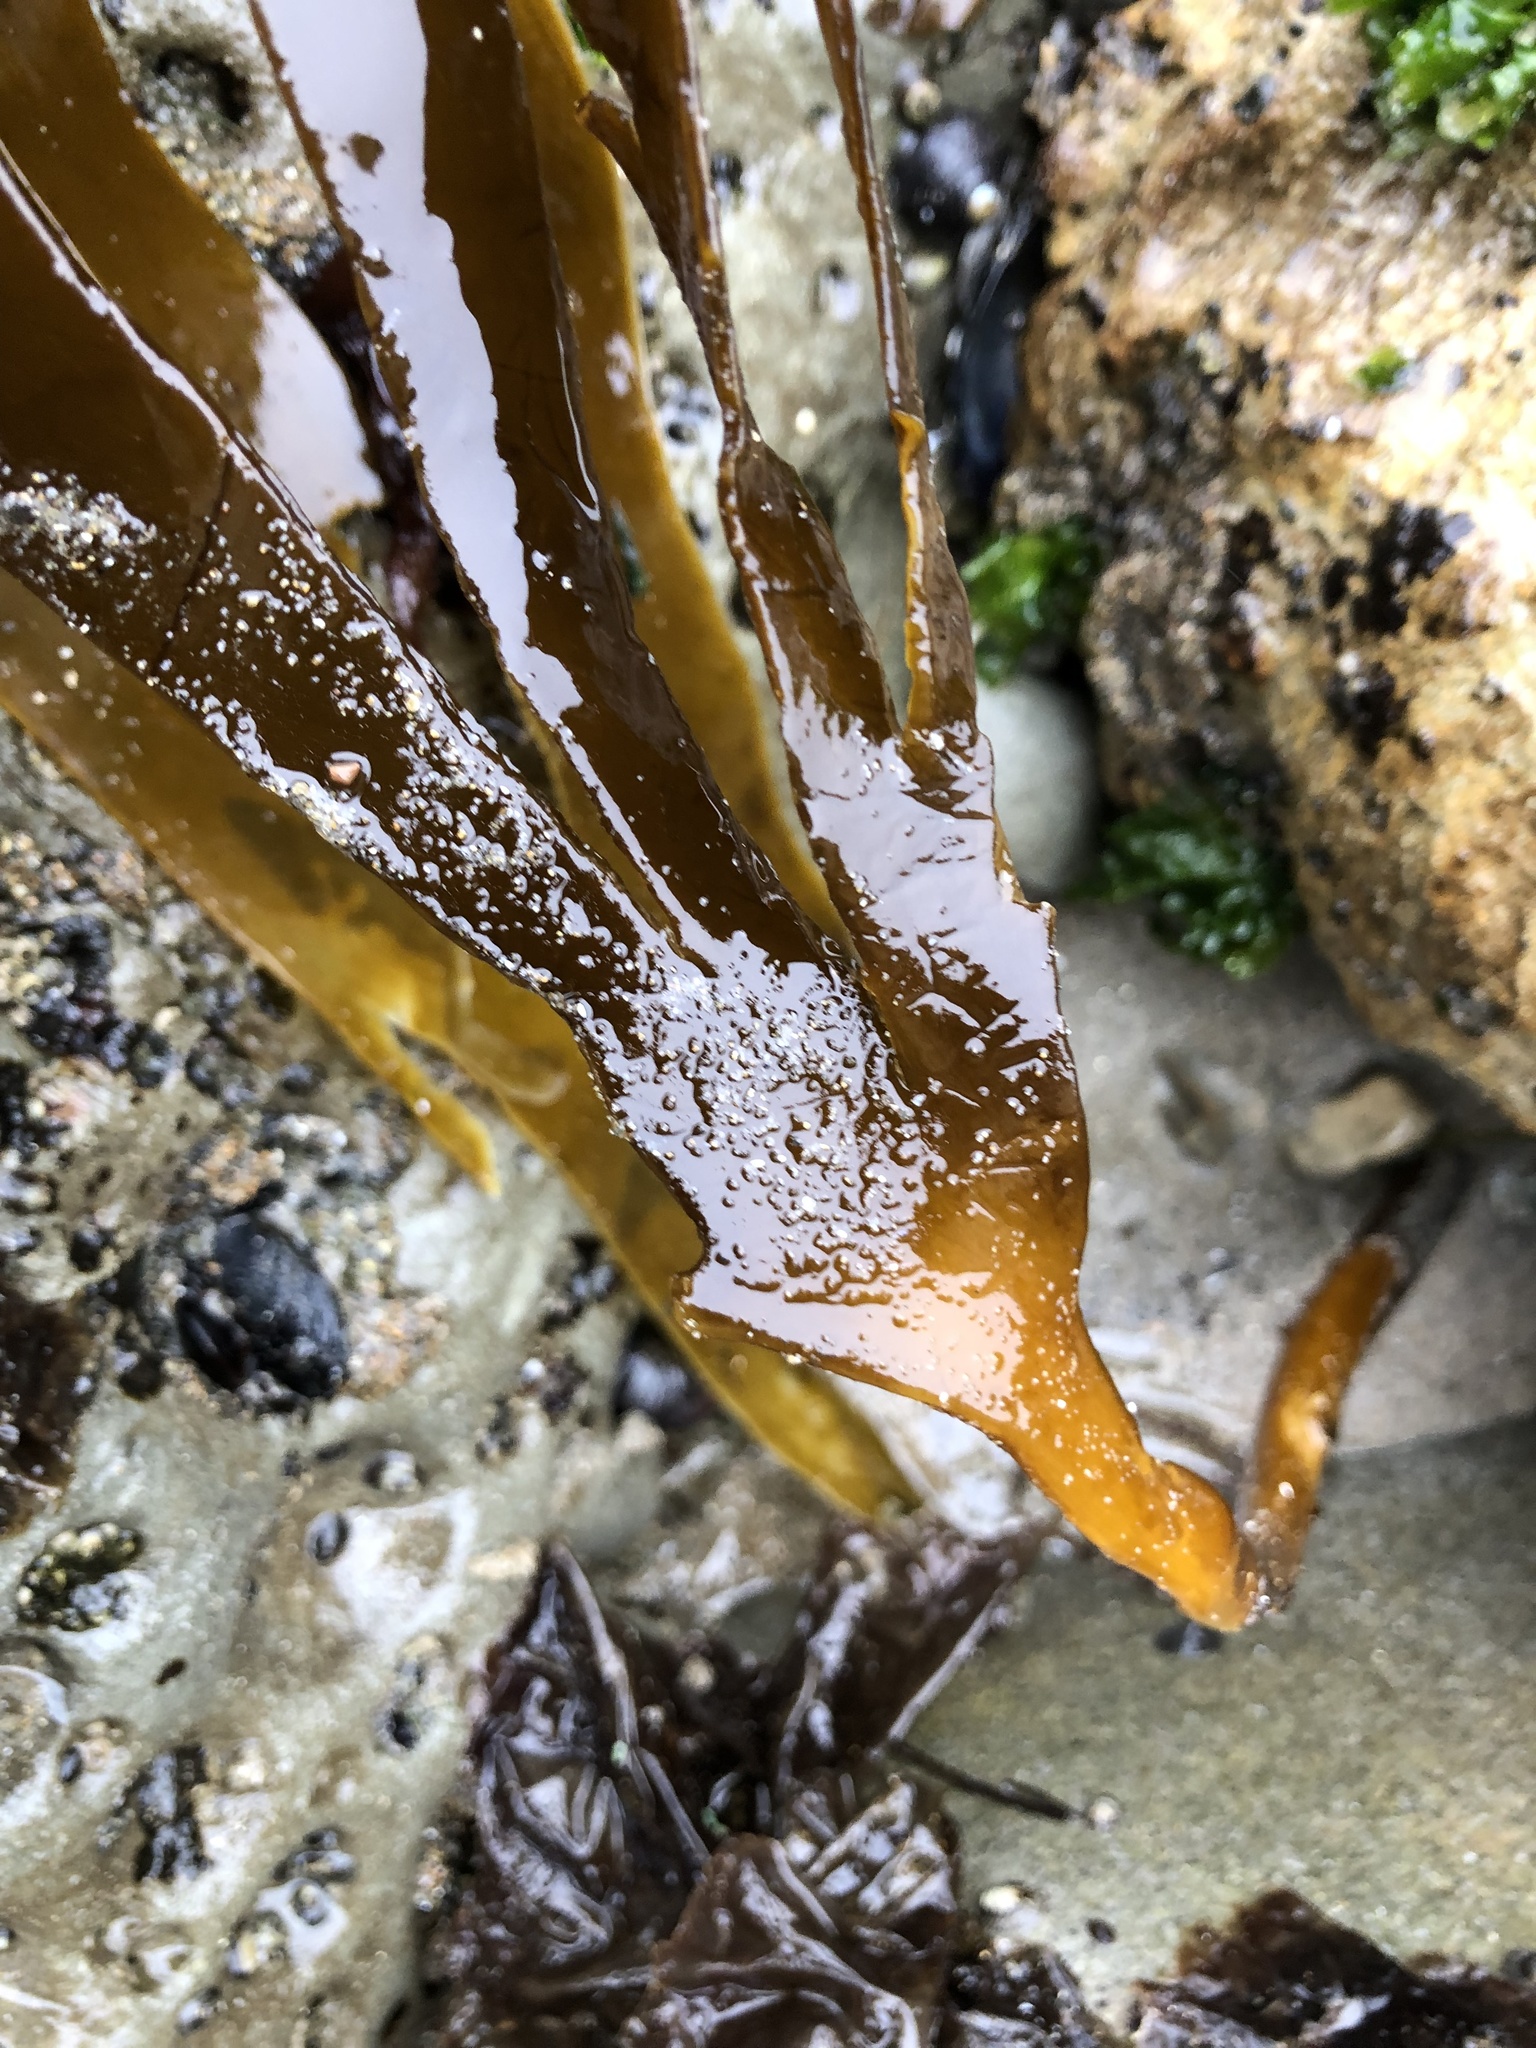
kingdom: Chromista
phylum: Ochrophyta
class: Phaeophyceae
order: Laminariales
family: Laminariaceae
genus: Laminaria
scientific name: Laminaria setchellii
